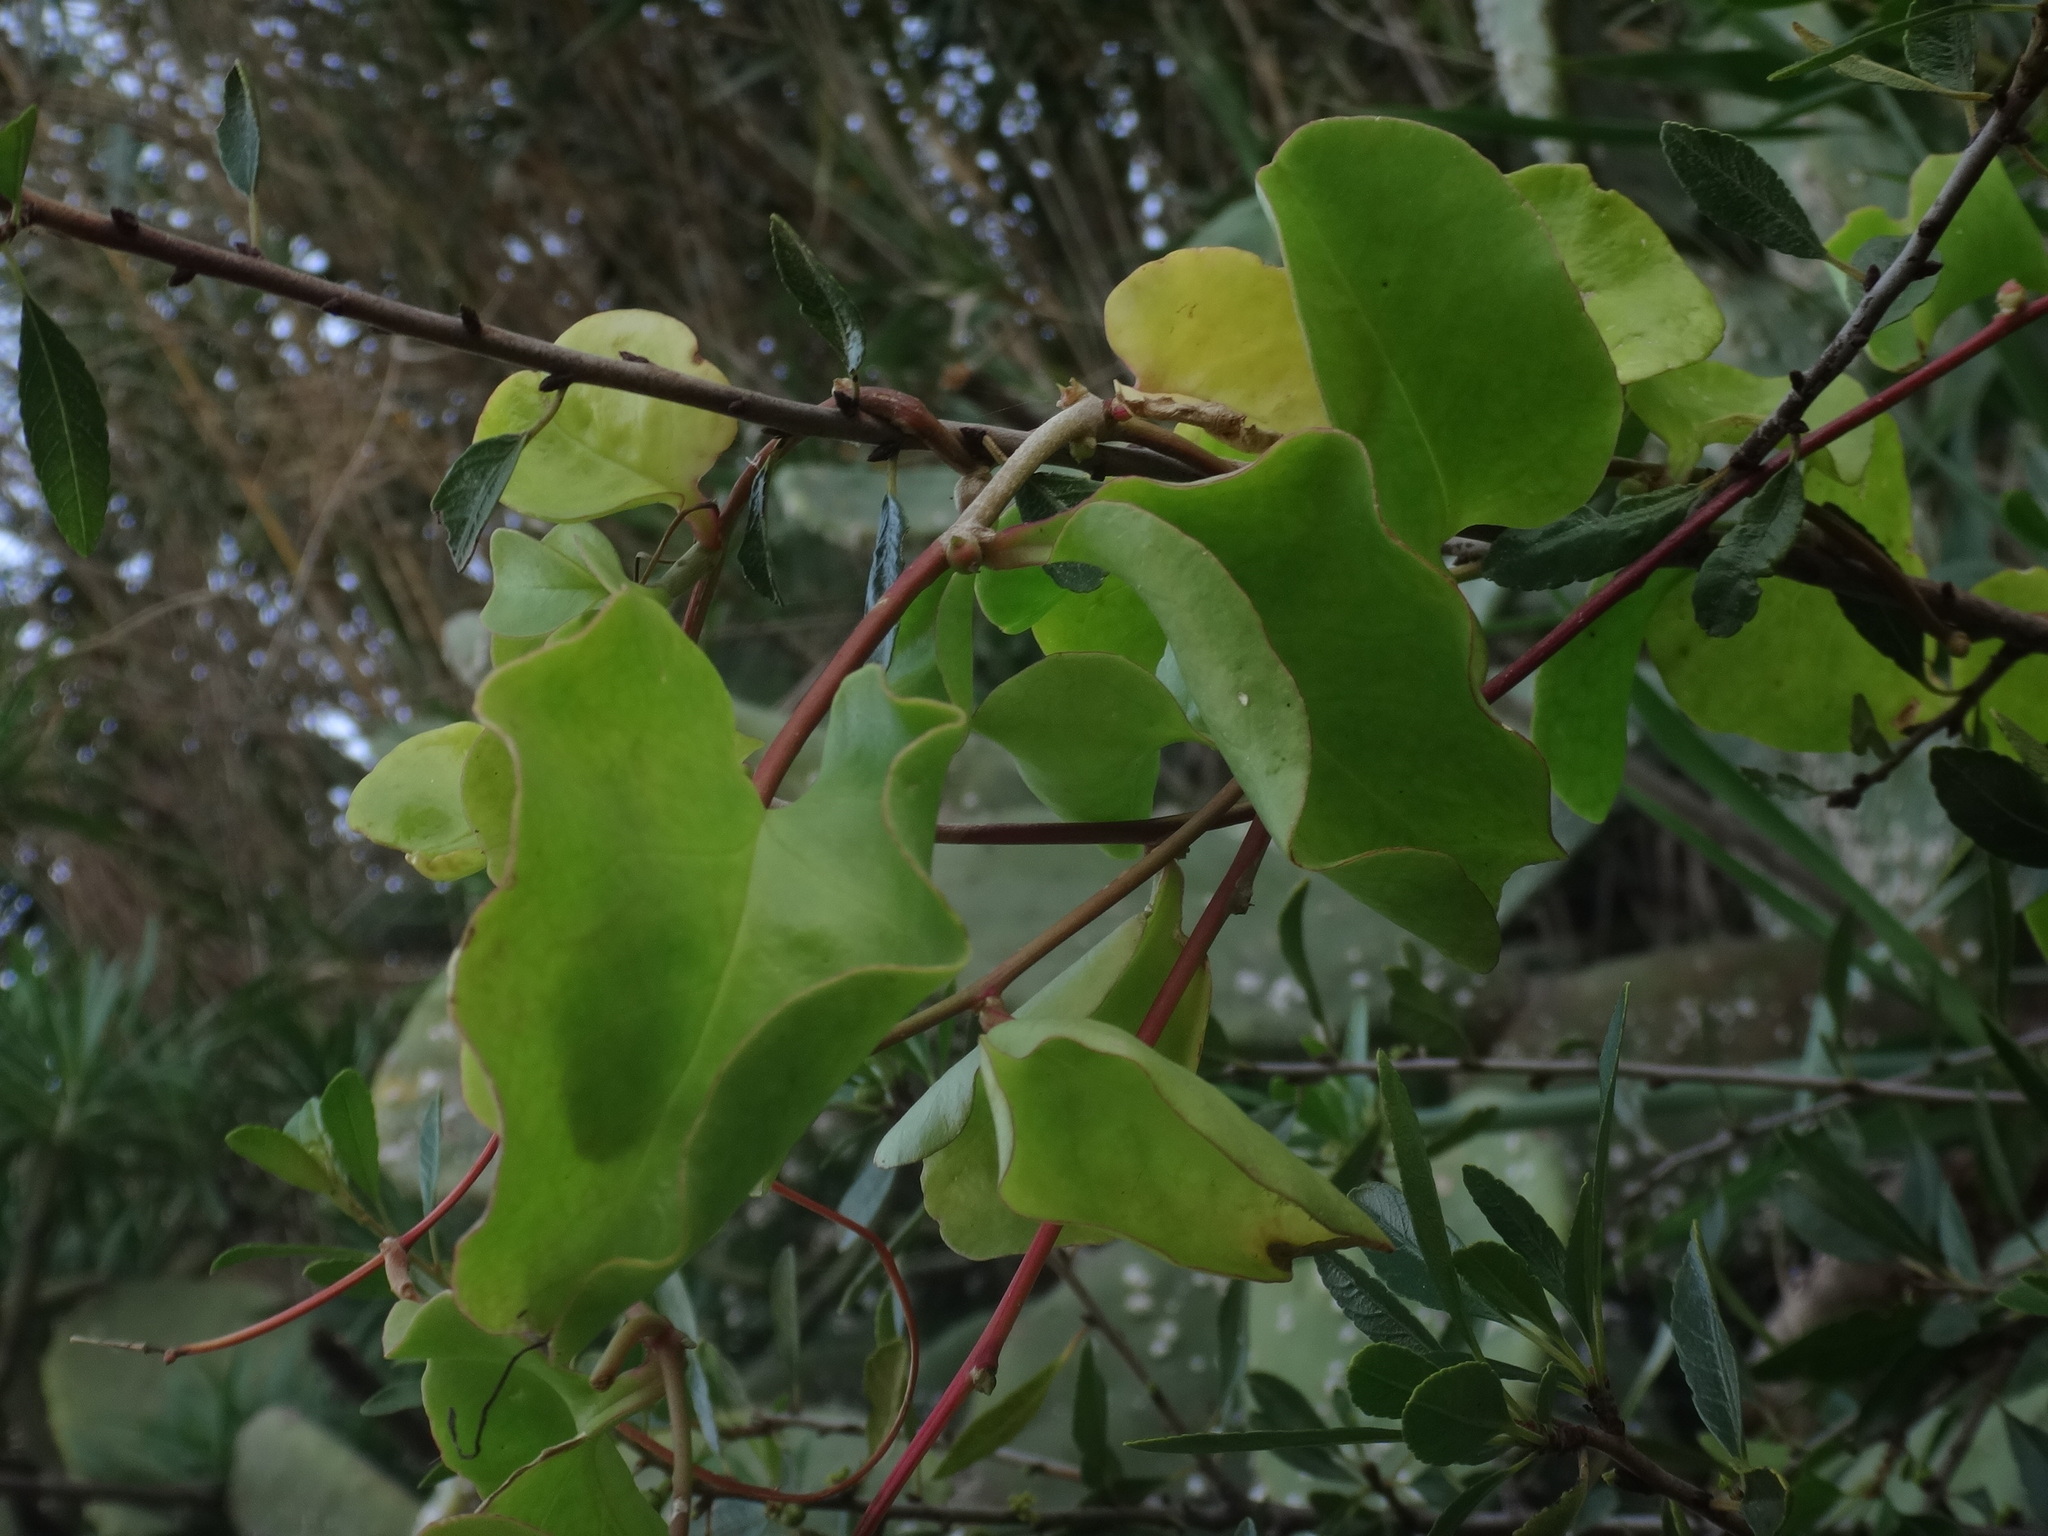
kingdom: Plantae
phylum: Tracheophyta
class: Magnoliopsida
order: Caryophyllales
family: Basellaceae
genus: Anredera
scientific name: Anredera cordifolia
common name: Heartleaf madeiravine
